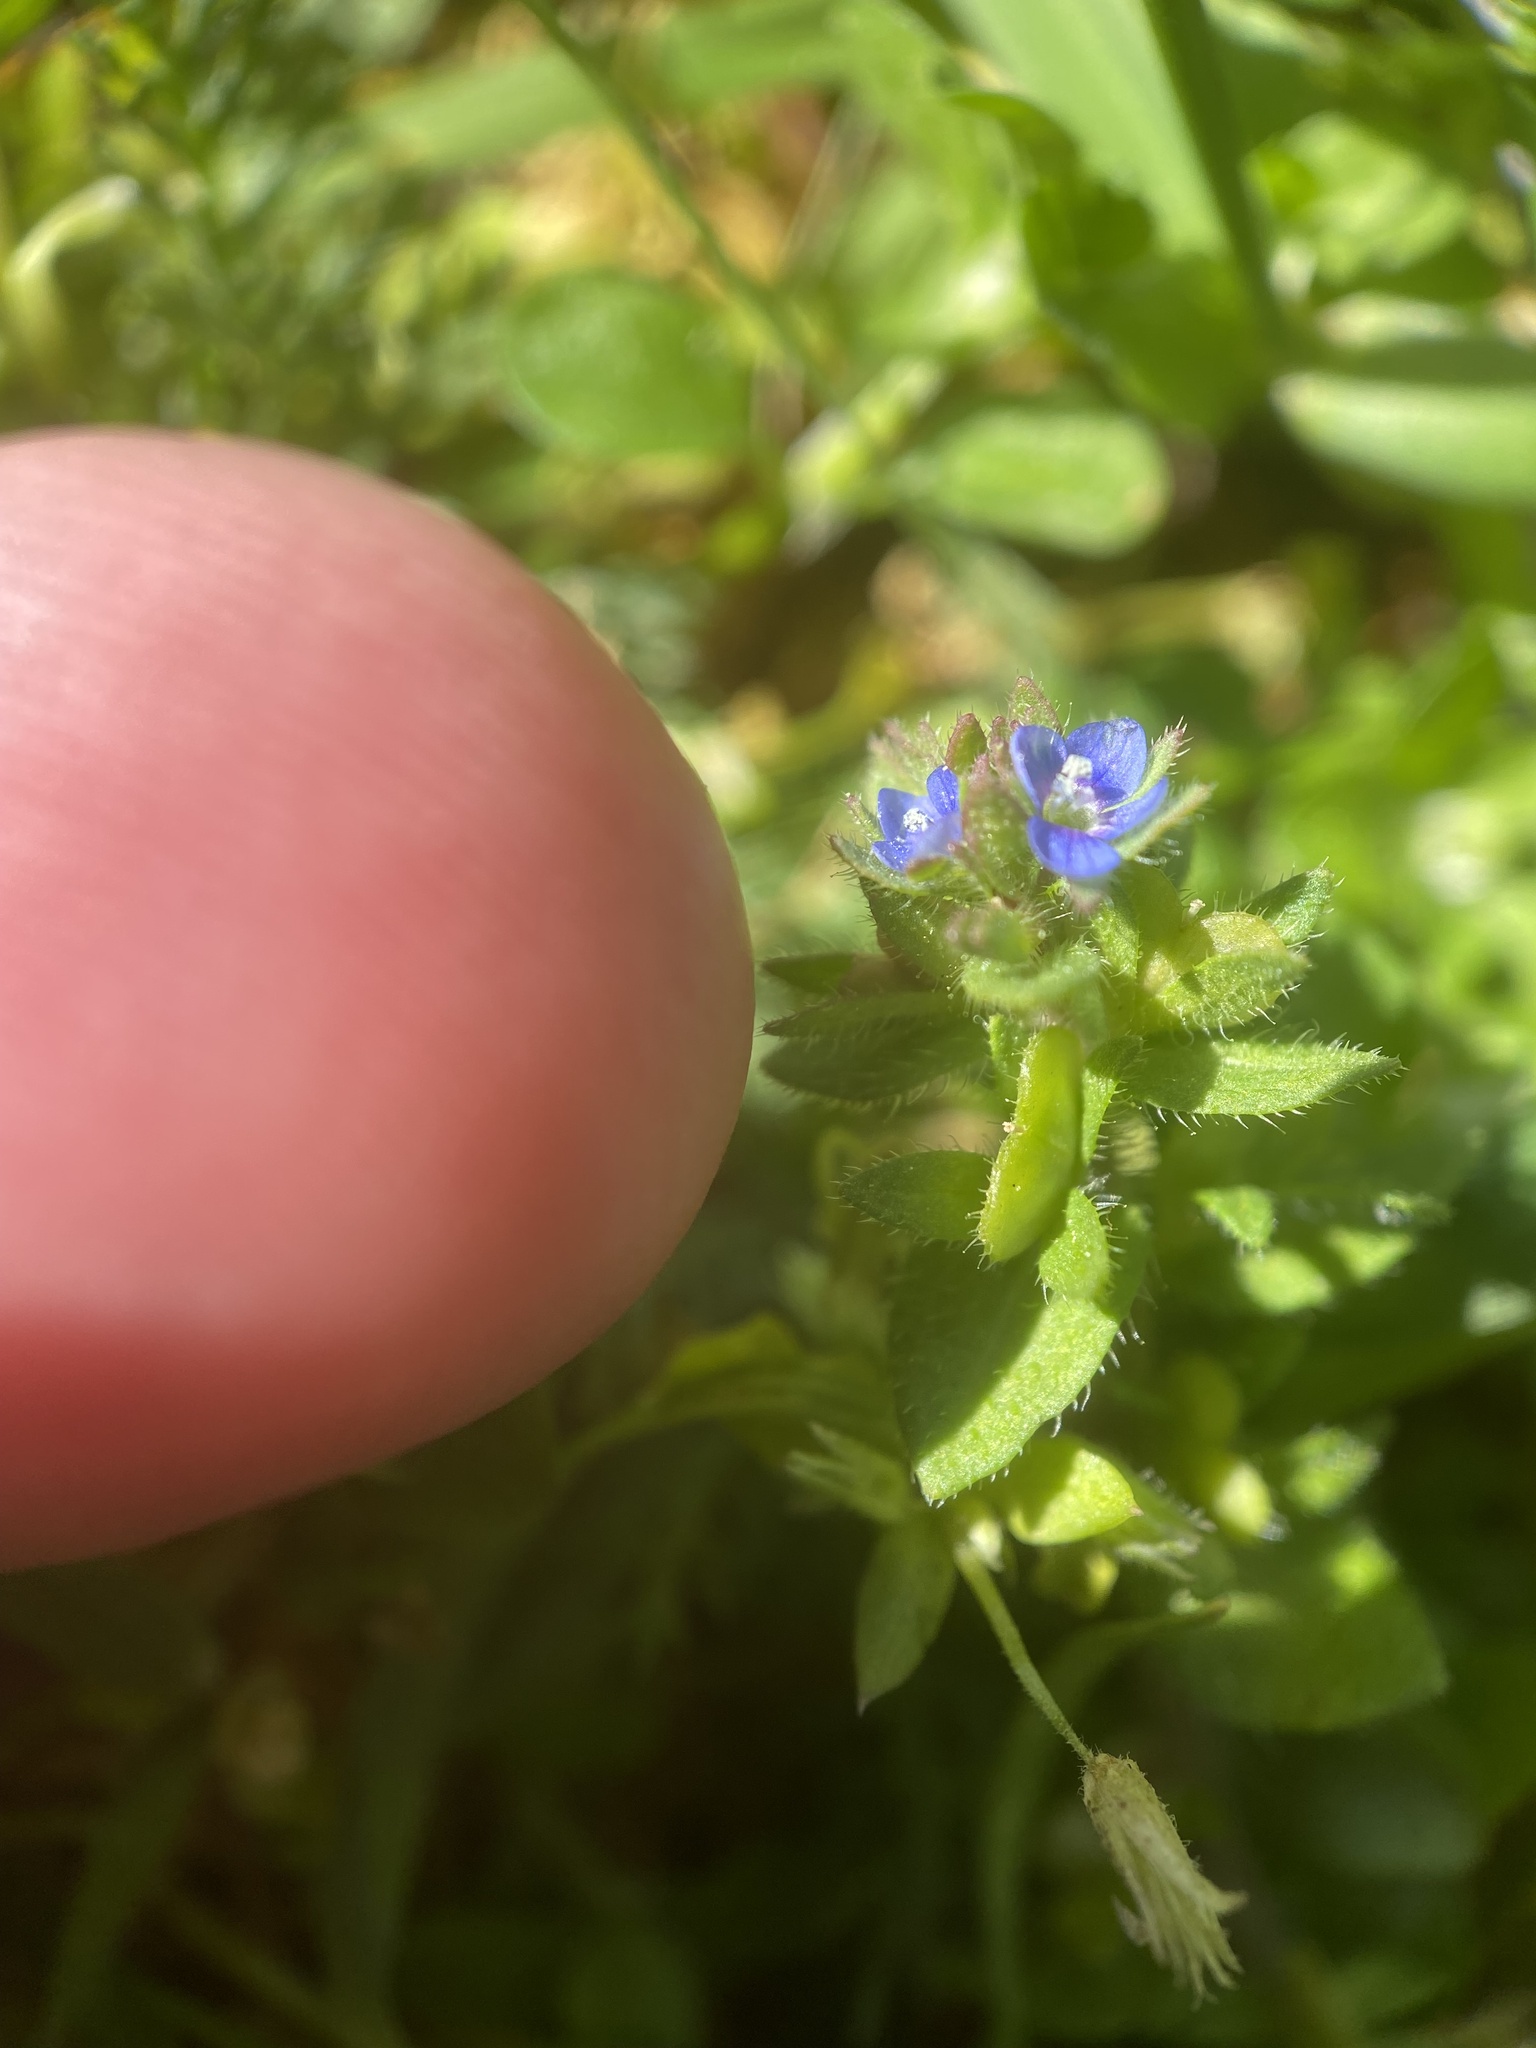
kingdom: Plantae
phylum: Tracheophyta
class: Magnoliopsida
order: Lamiales
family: Plantaginaceae
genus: Veronica
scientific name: Veronica arvensis
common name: Corn speedwell
